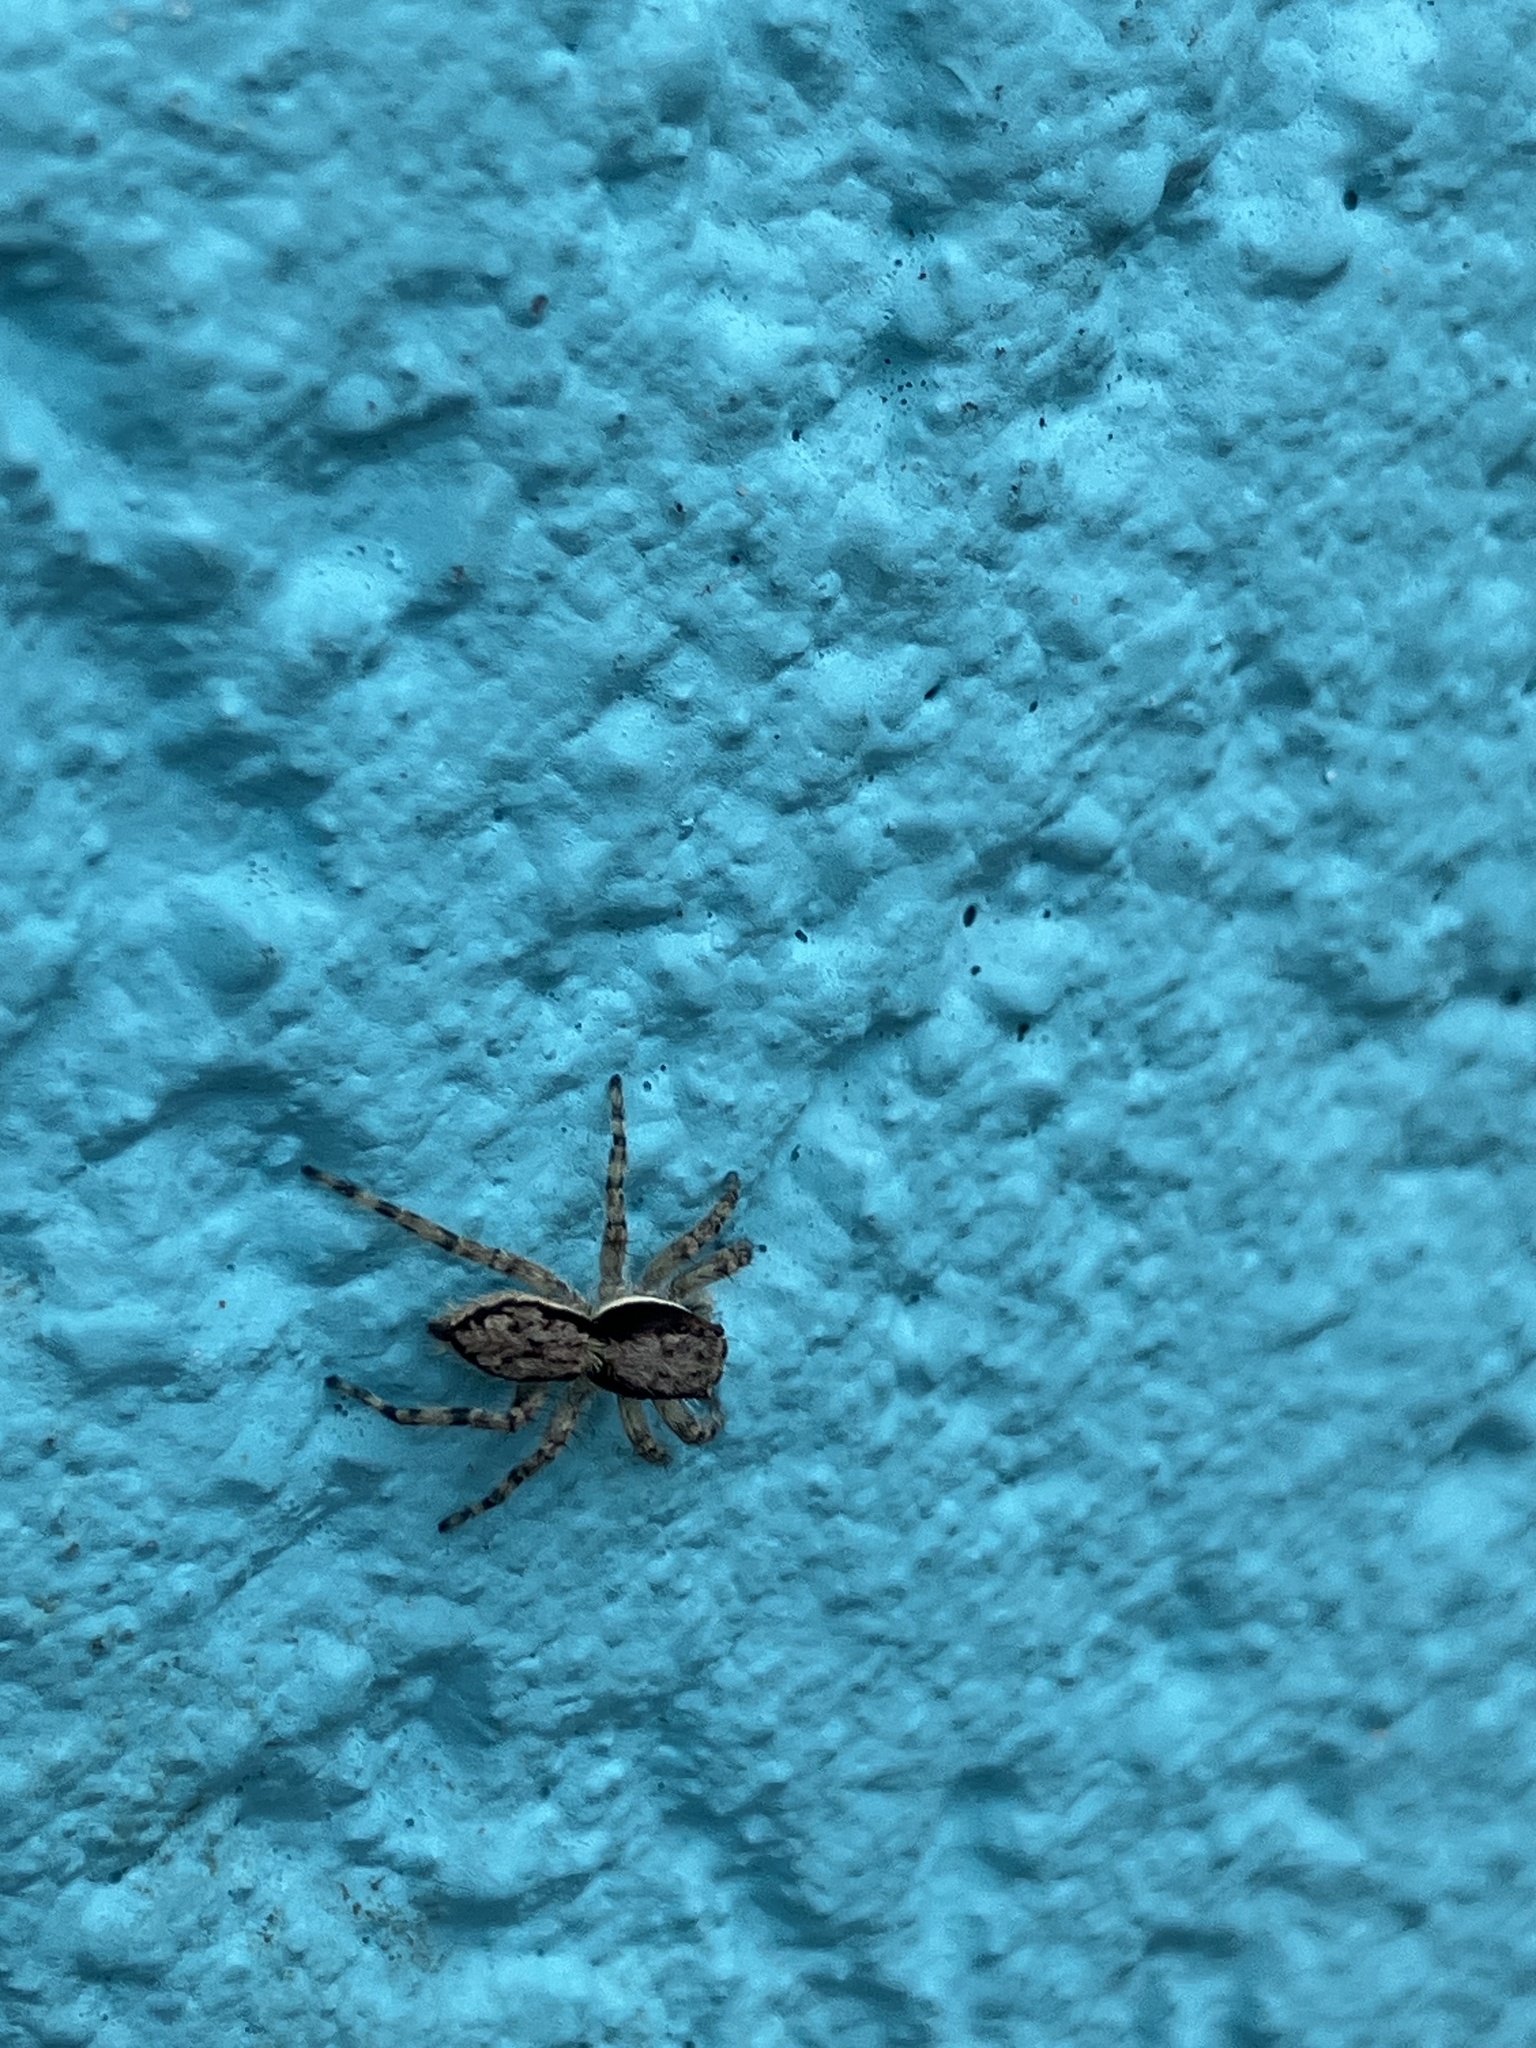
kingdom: Animalia
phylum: Arthropoda
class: Arachnida
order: Araneae
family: Salticidae
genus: Menemerus
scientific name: Menemerus bivittatus
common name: Gray wall jumper
